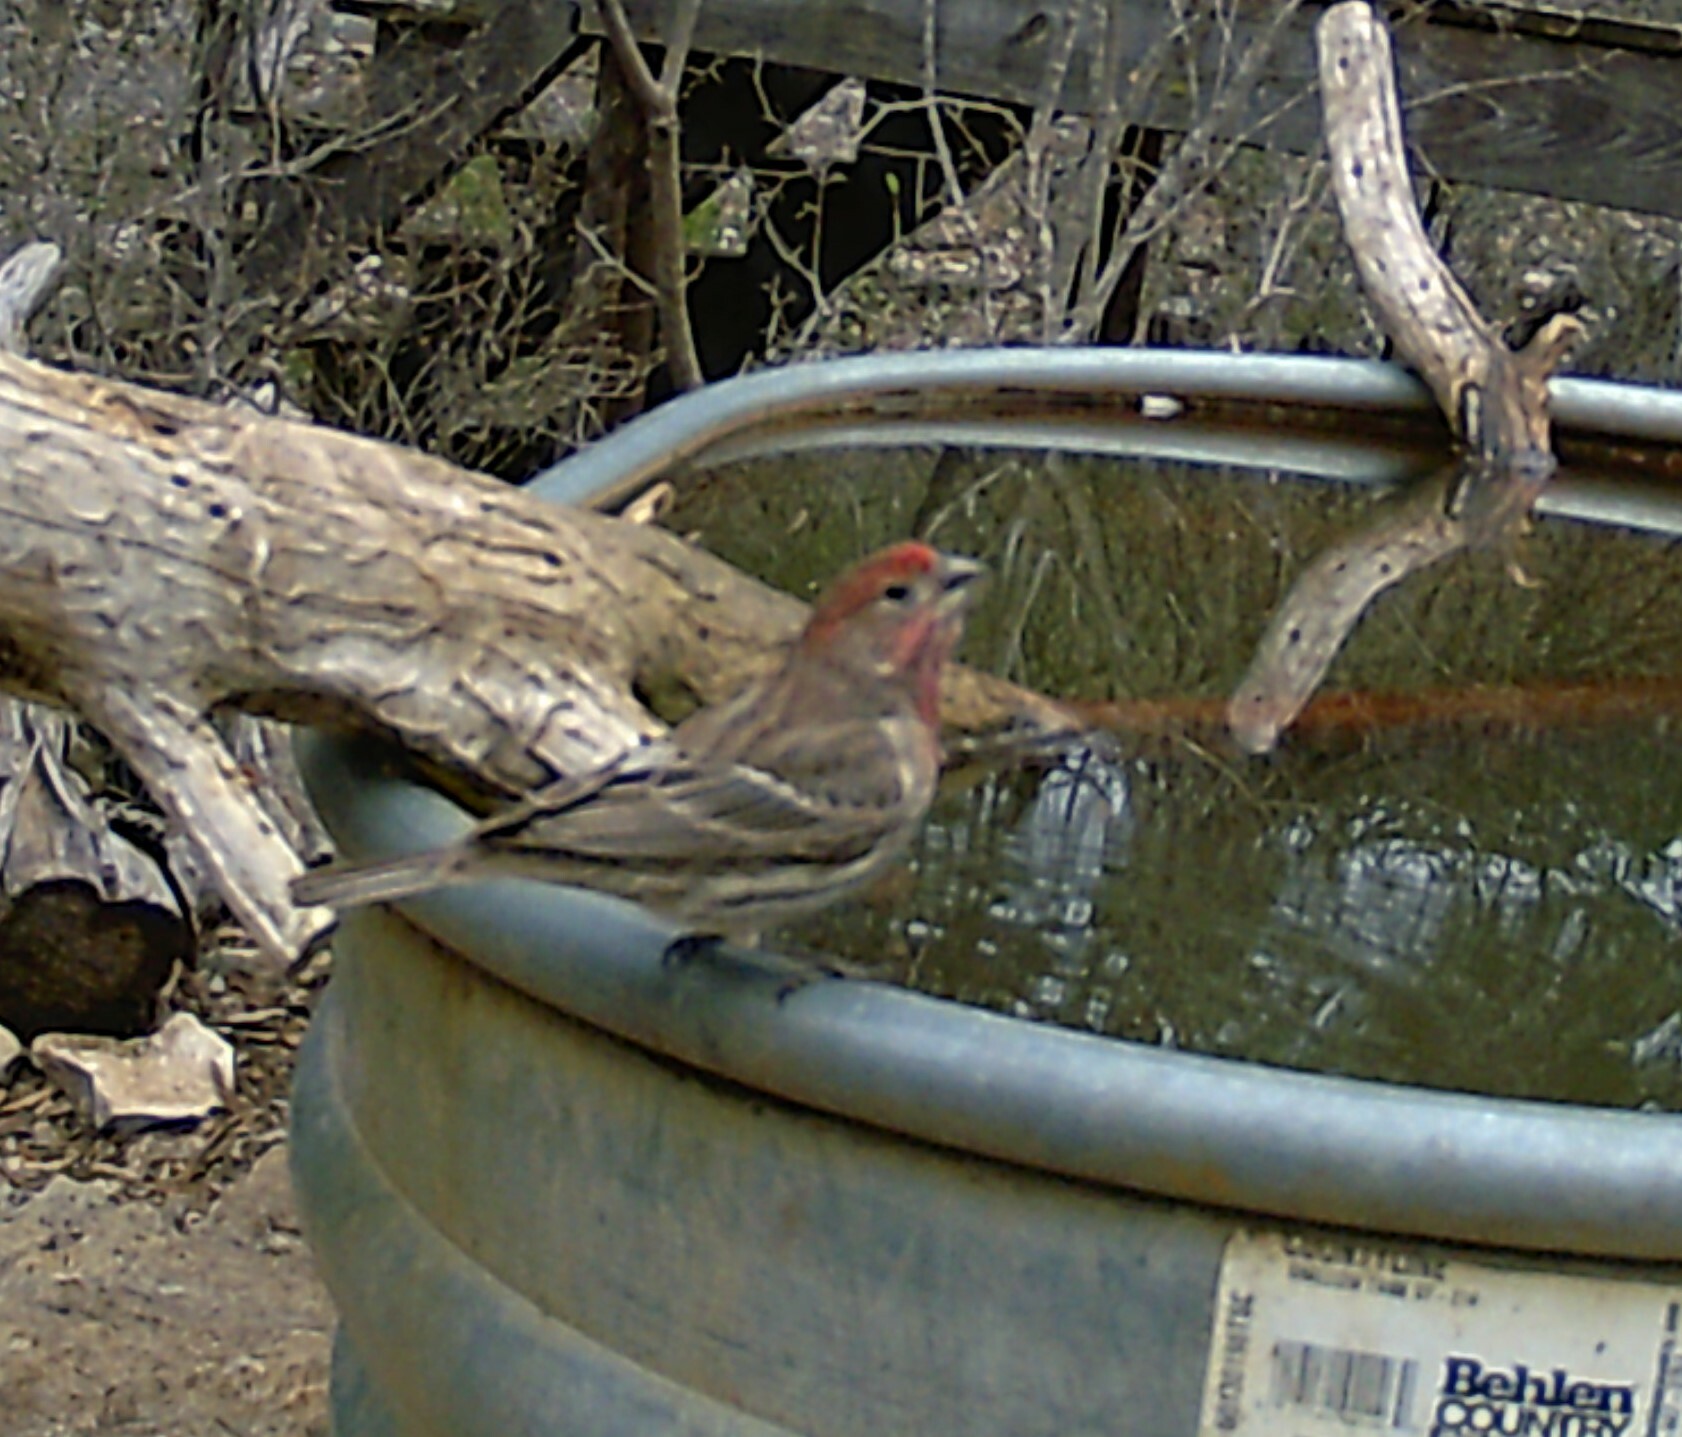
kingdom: Animalia
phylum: Chordata
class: Aves
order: Passeriformes
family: Fringillidae
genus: Haemorhous
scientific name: Haemorhous mexicanus
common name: House finch
